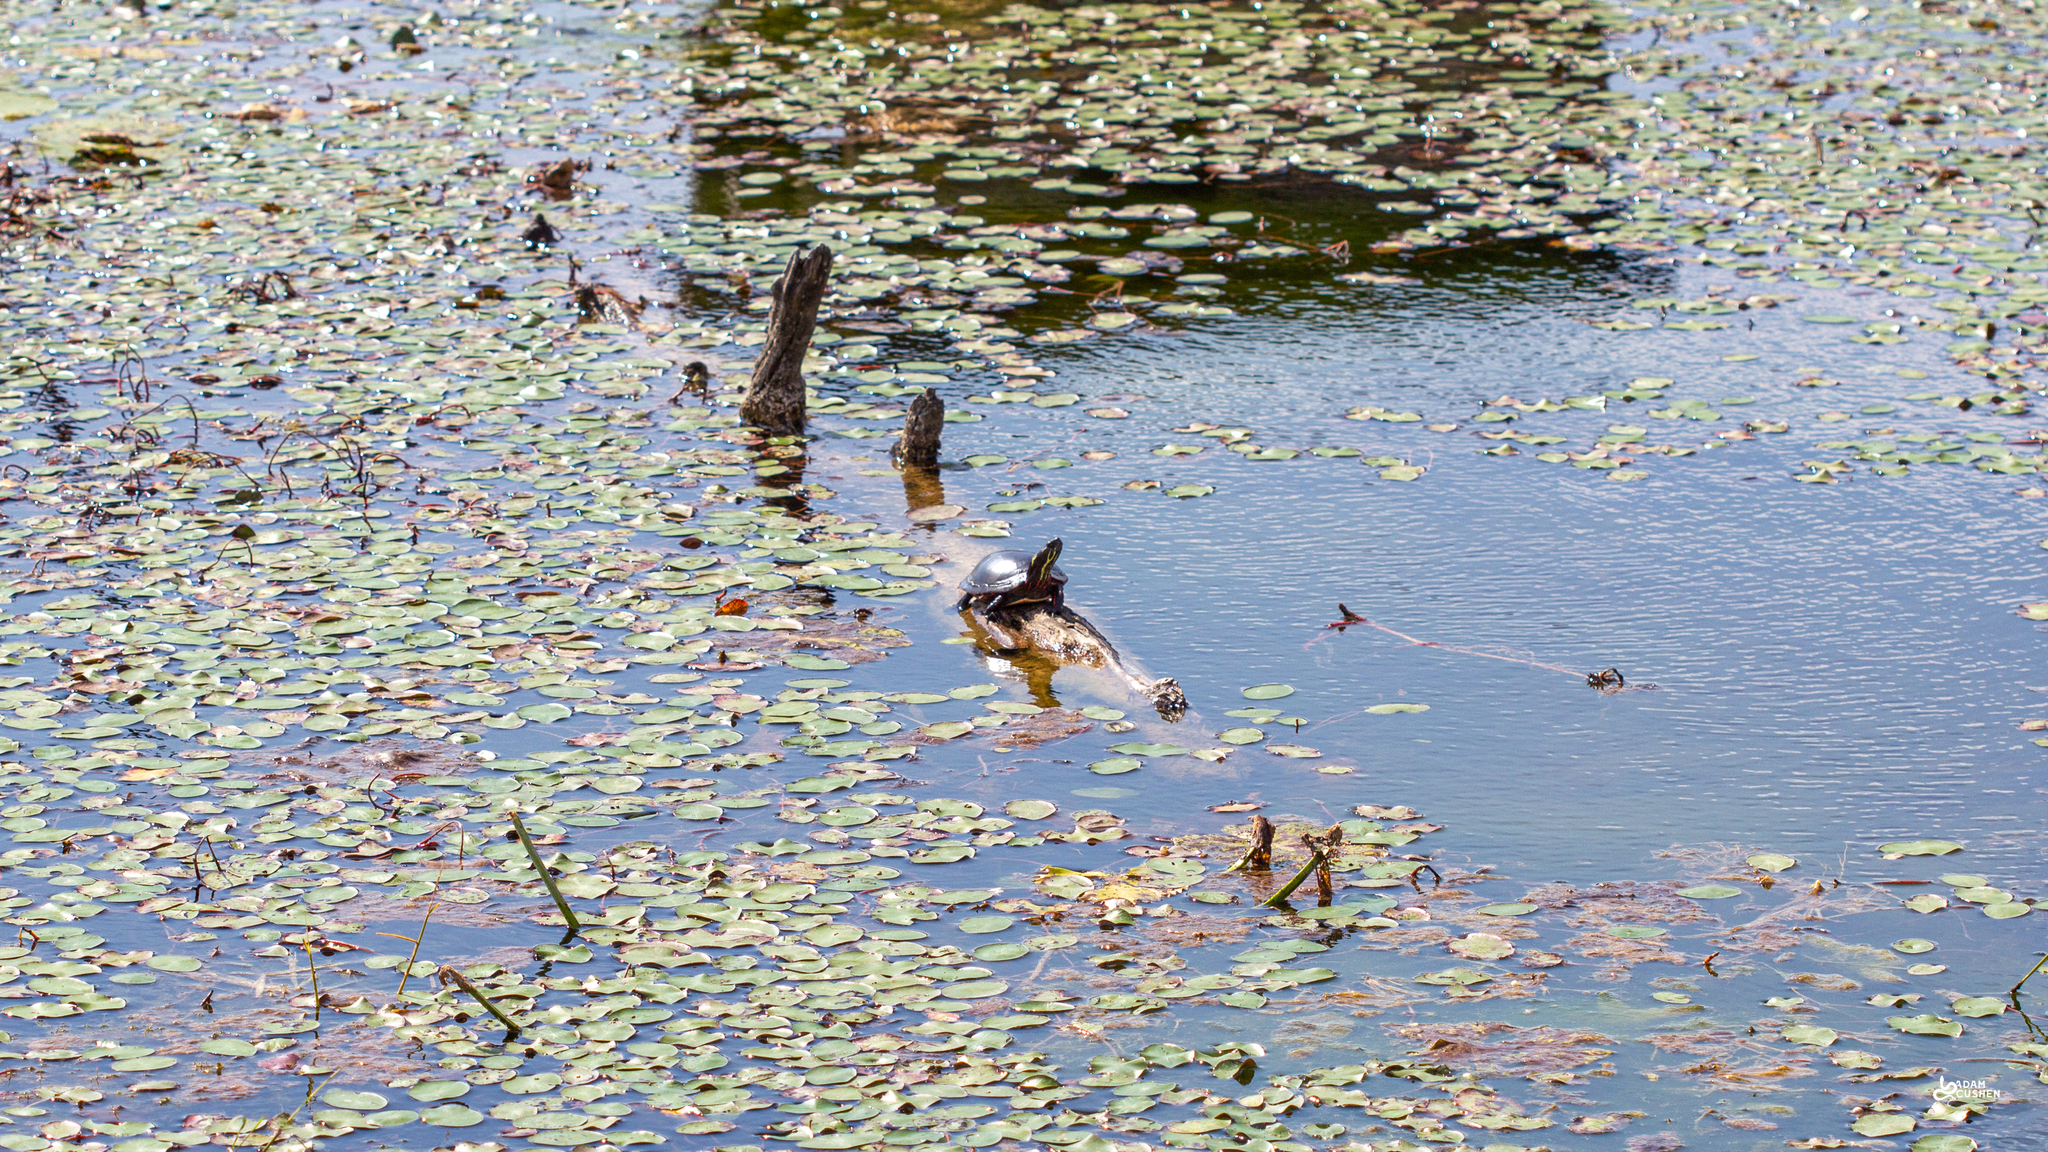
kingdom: Animalia
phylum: Chordata
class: Testudines
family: Emydidae
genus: Chrysemys
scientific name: Chrysemys picta
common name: Painted turtle
